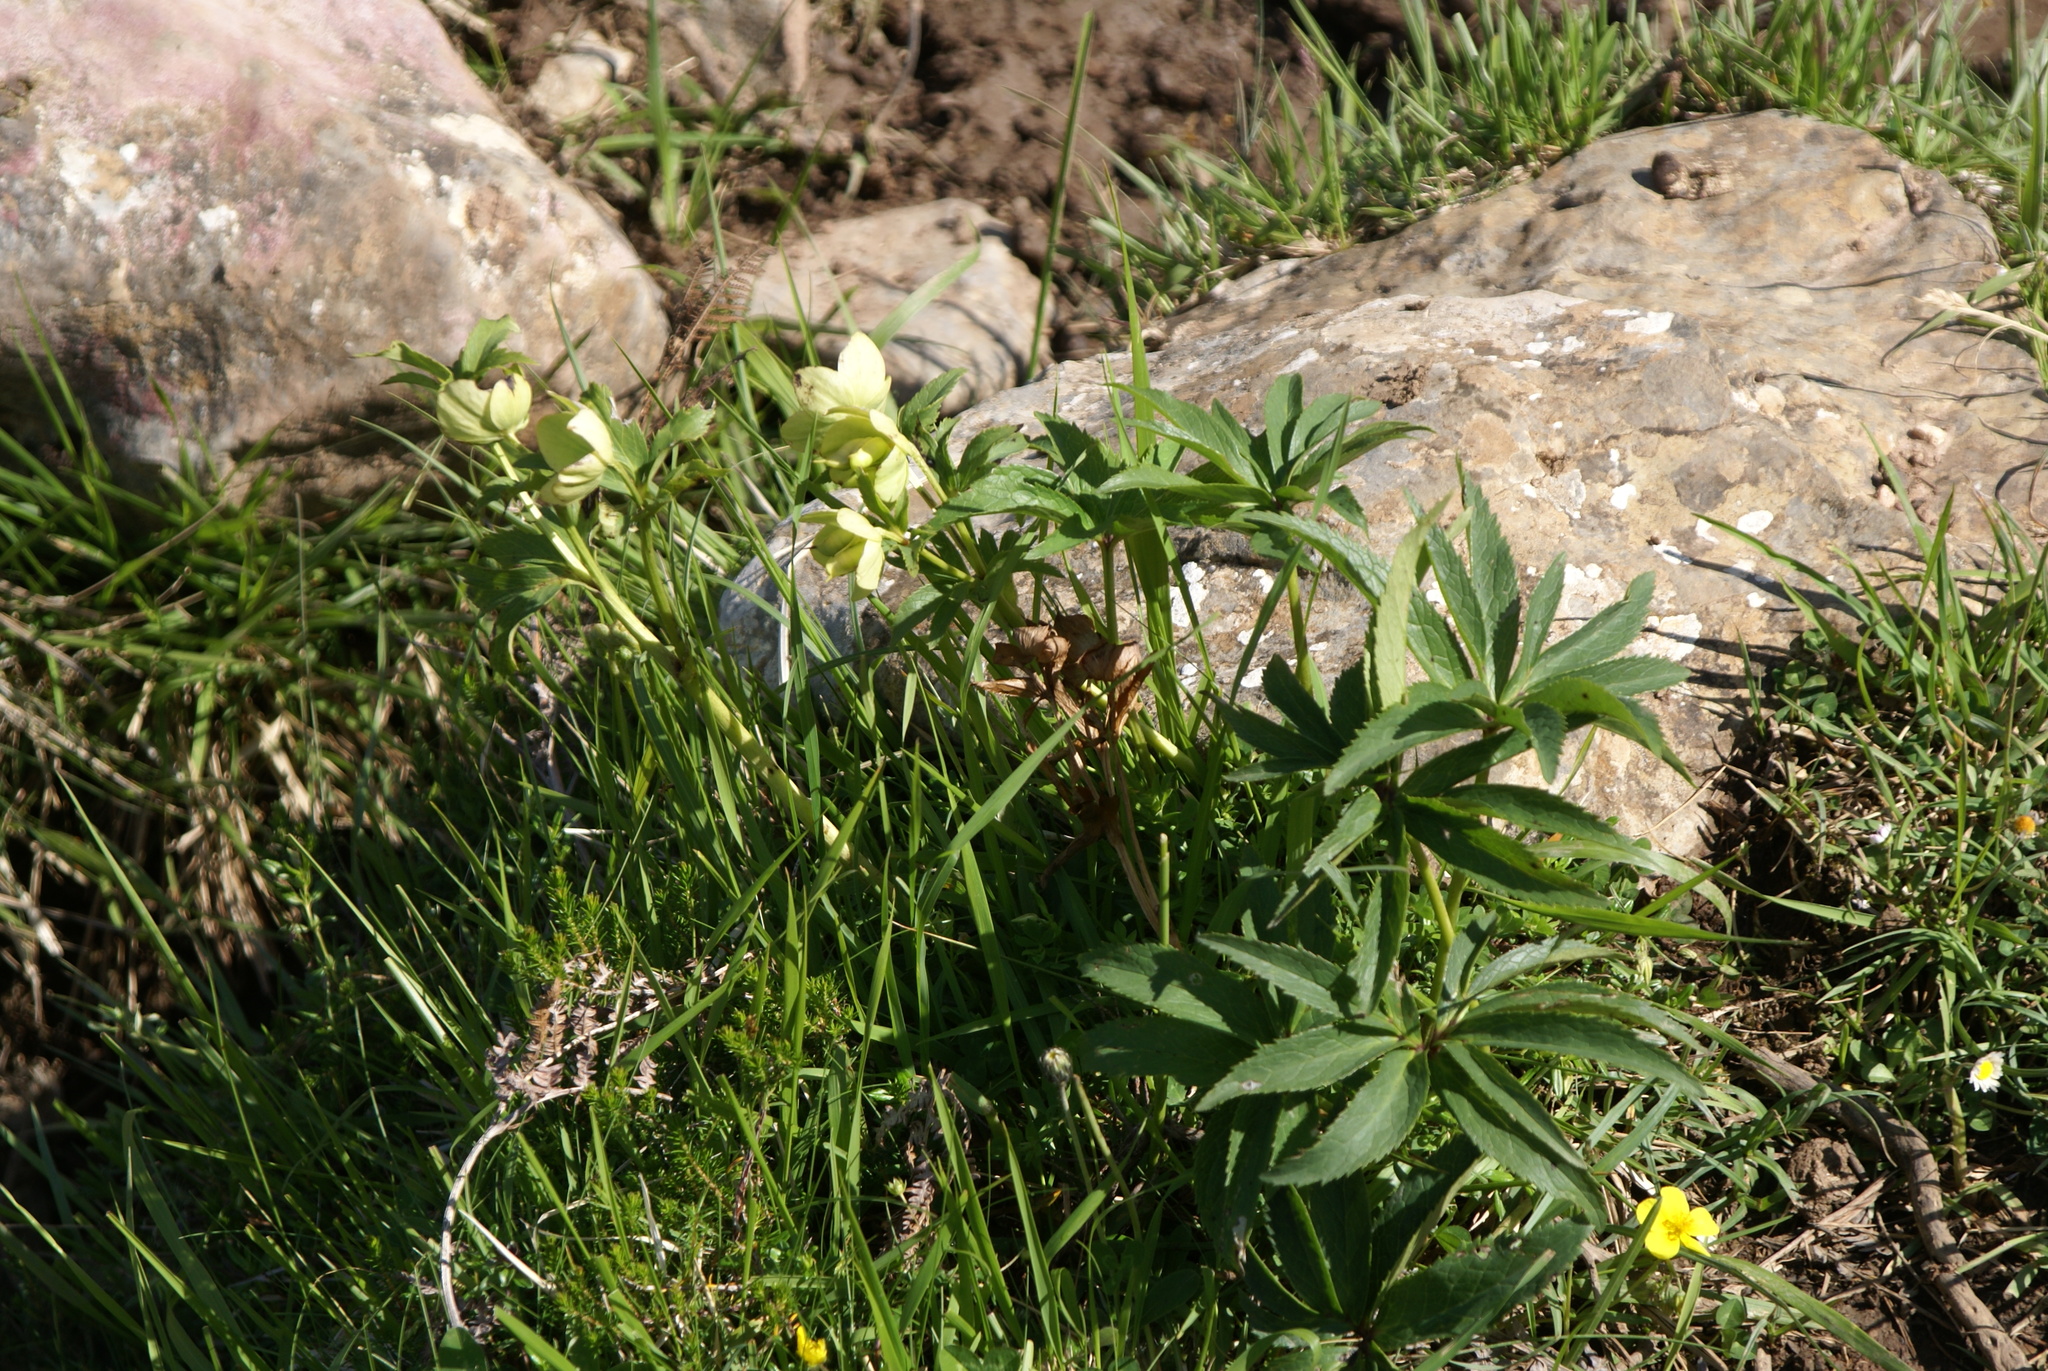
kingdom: Plantae
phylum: Tracheophyta
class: Magnoliopsida
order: Ranunculales
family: Ranunculaceae
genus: Helleborus
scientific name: Helleborus viridis
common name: Green hellebore
